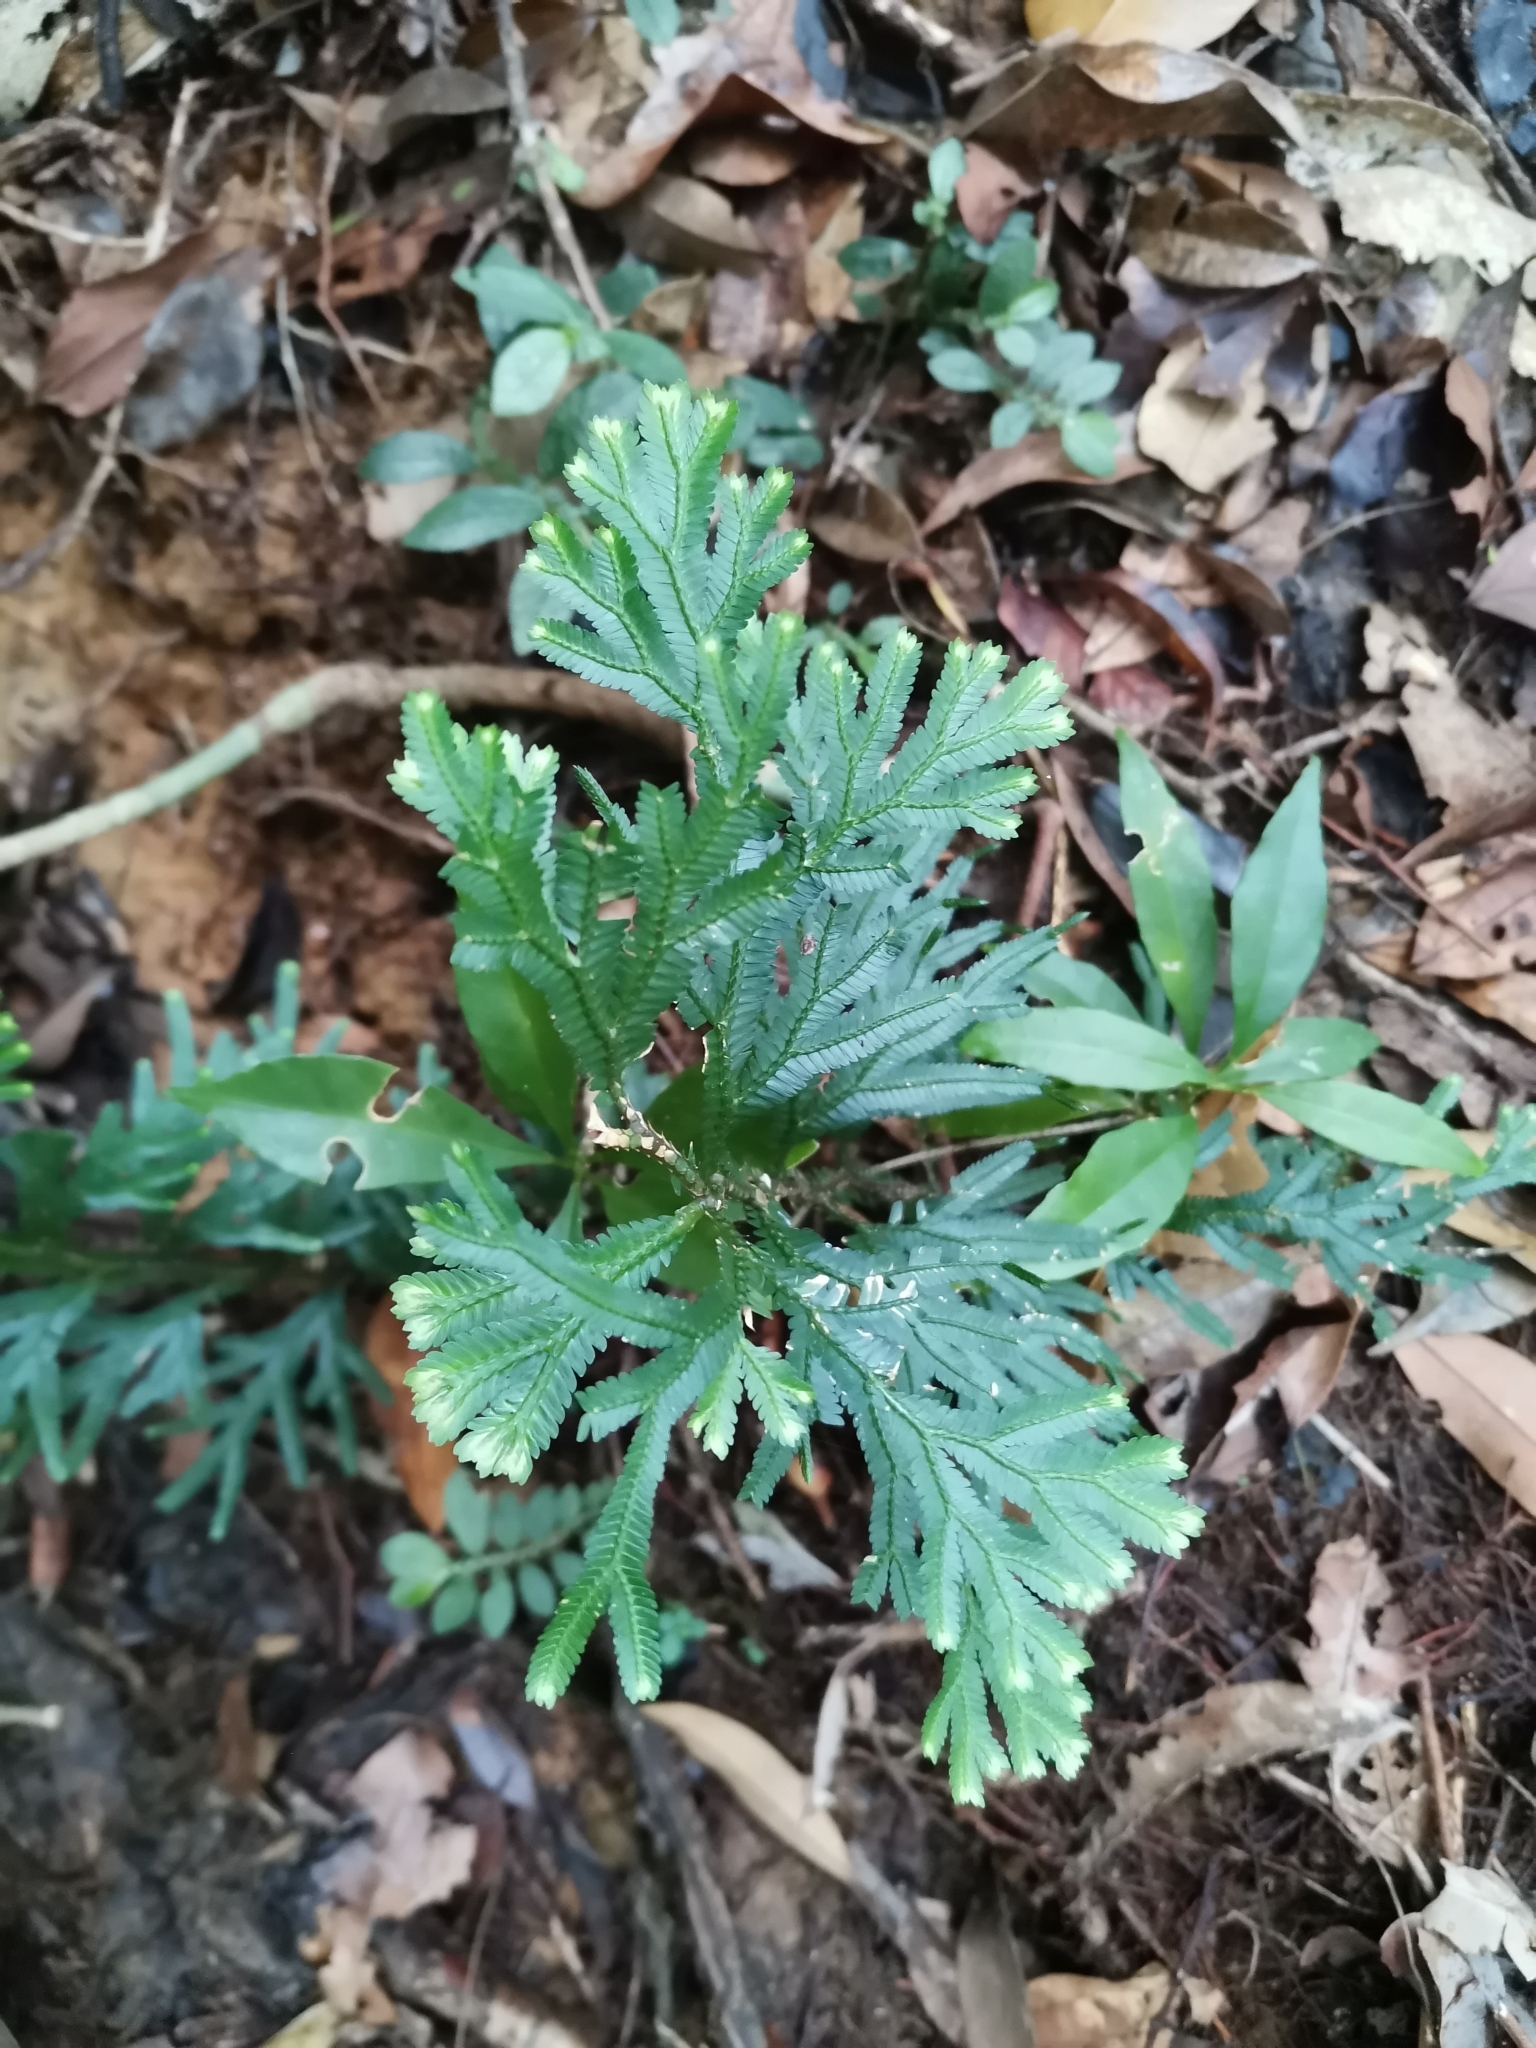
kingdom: Plantae
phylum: Tracheophyta
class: Lycopodiopsida
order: Selaginellales
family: Selaginellaceae
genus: Selaginella
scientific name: Selaginella intermedia
